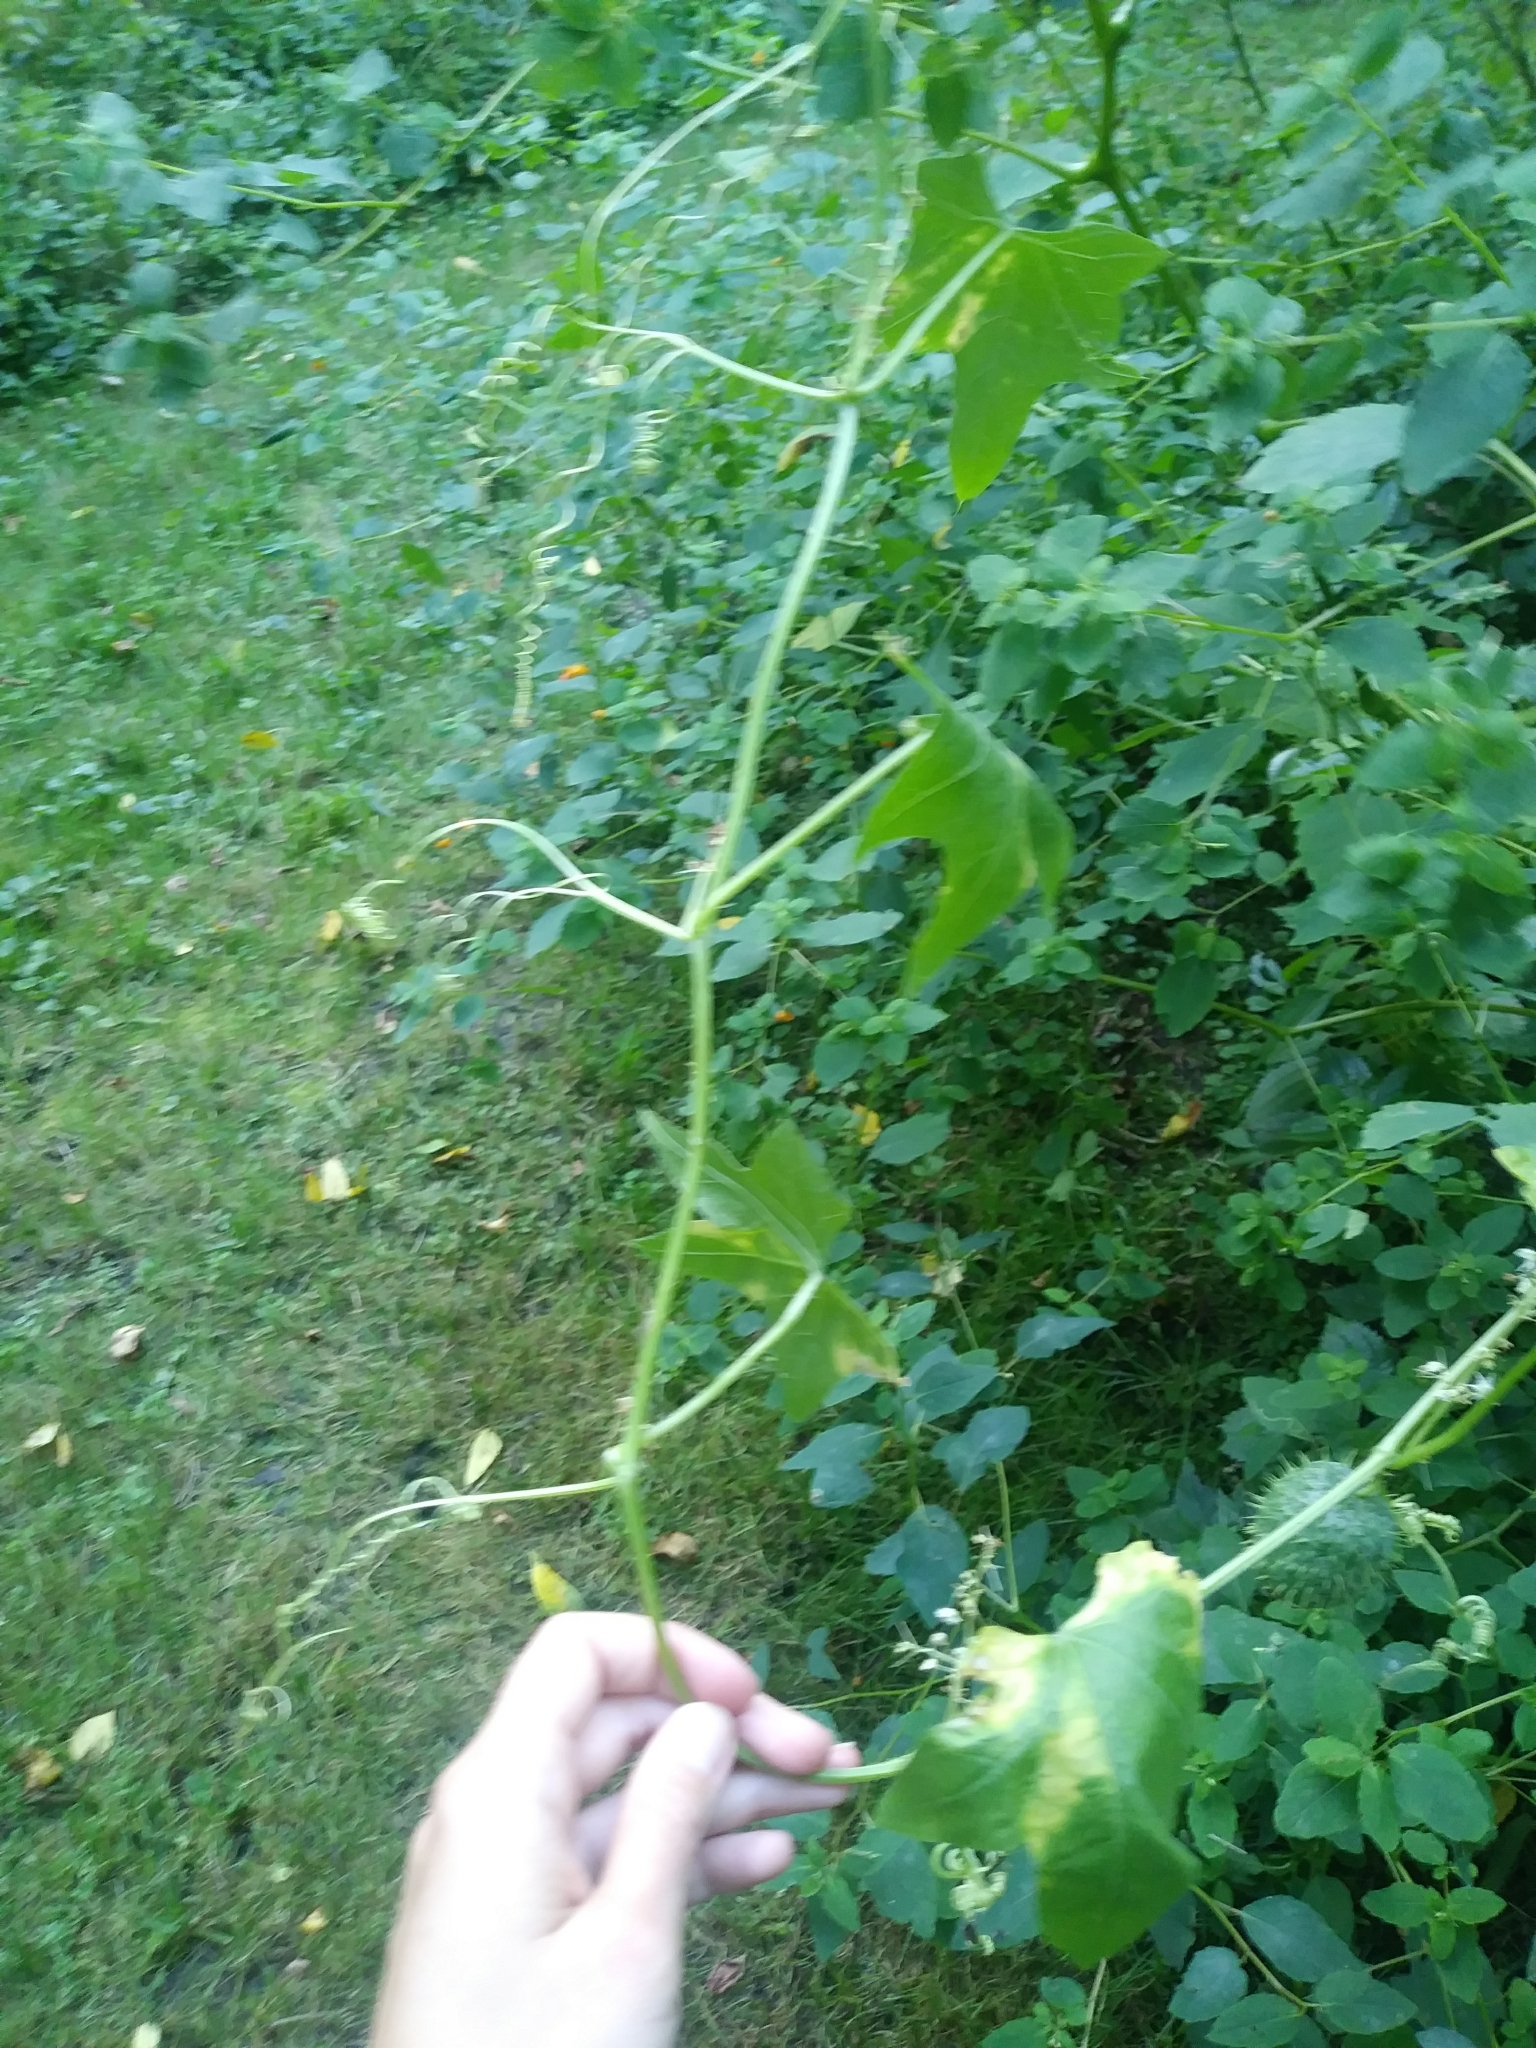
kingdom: Plantae
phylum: Tracheophyta
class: Magnoliopsida
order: Cucurbitales
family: Cucurbitaceae
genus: Echinocystis
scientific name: Echinocystis lobata
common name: Wild cucumber
